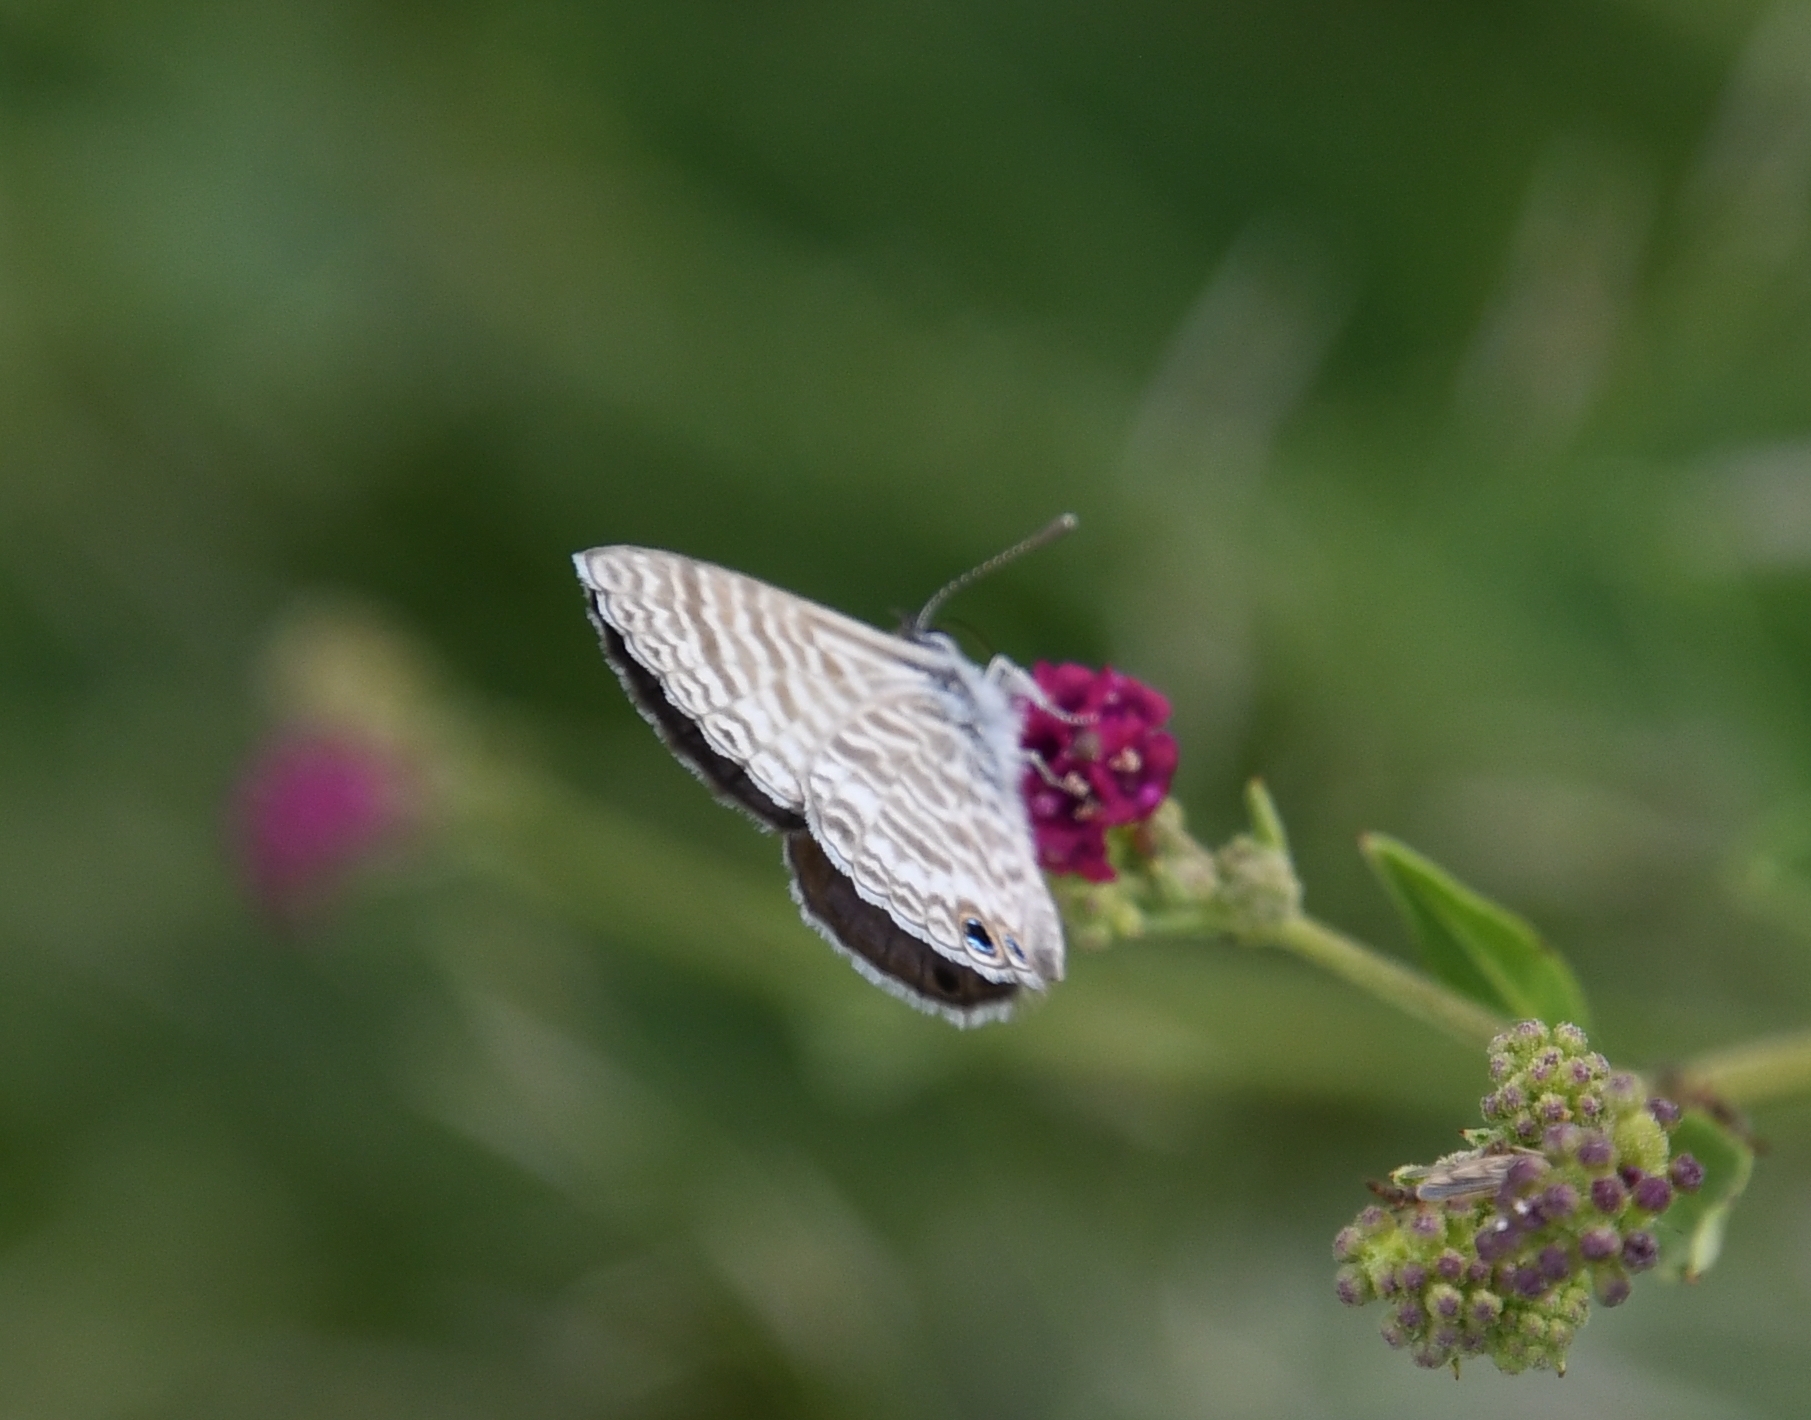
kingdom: Animalia
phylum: Arthropoda
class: Insecta
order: Lepidoptera
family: Lycaenidae
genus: Leptotes
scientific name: Leptotes marina
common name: Marine blue
